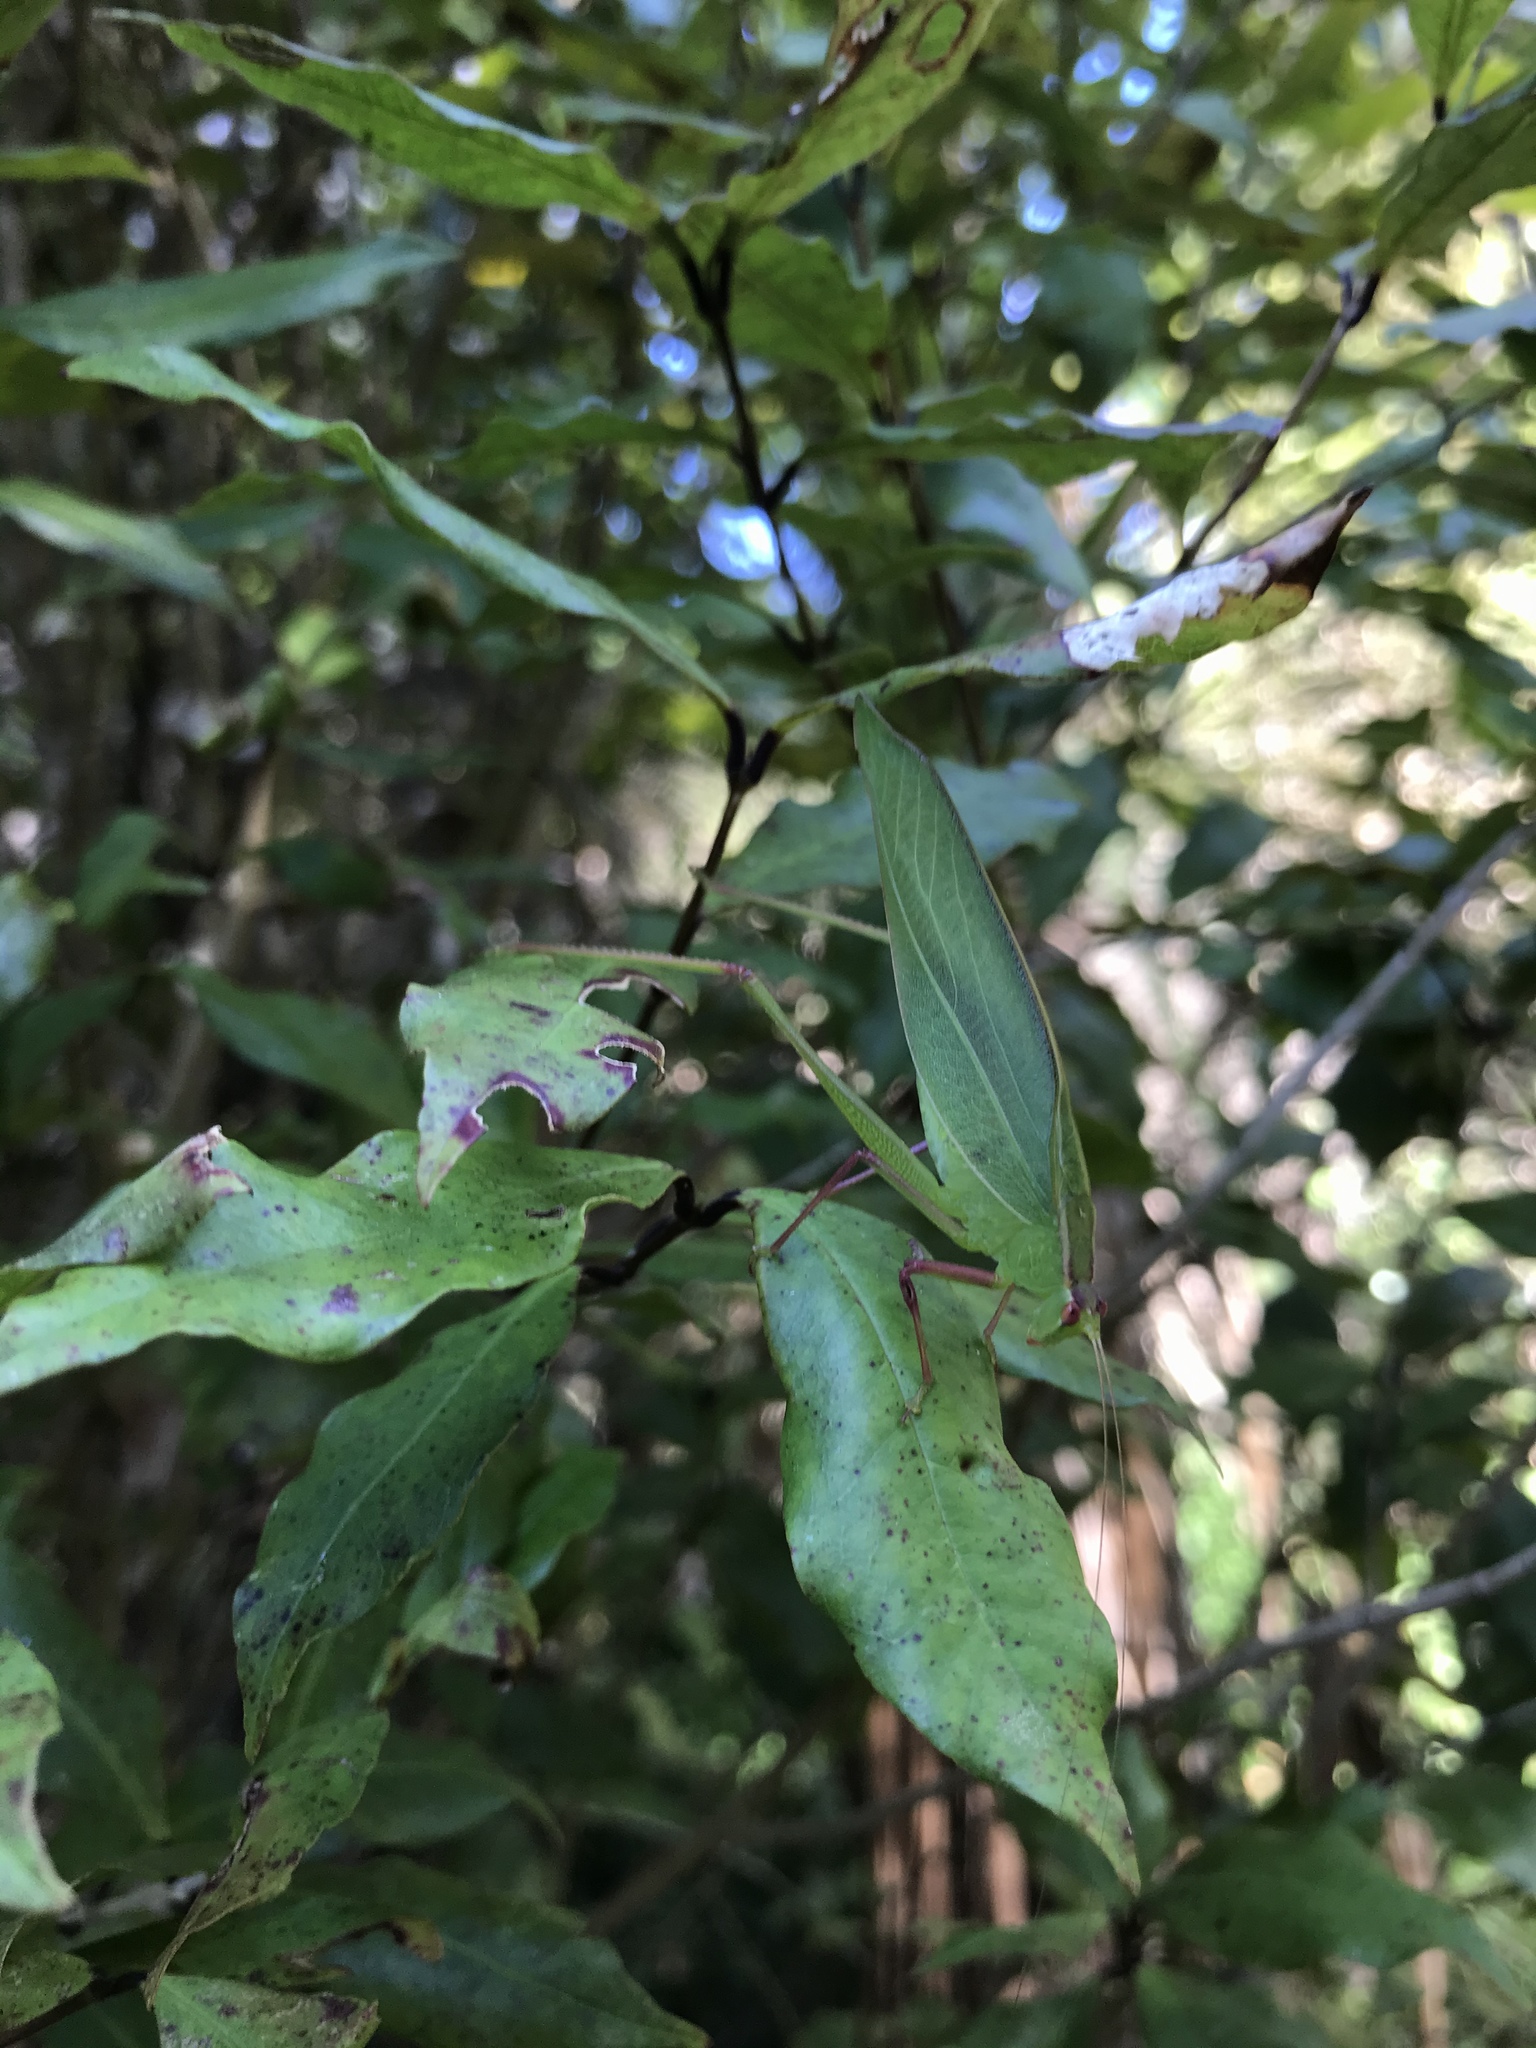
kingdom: Animalia
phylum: Arthropoda
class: Insecta
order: Orthoptera
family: Tettigoniidae
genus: Caedicia
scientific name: Caedicia simplex
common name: Common garden katydid
